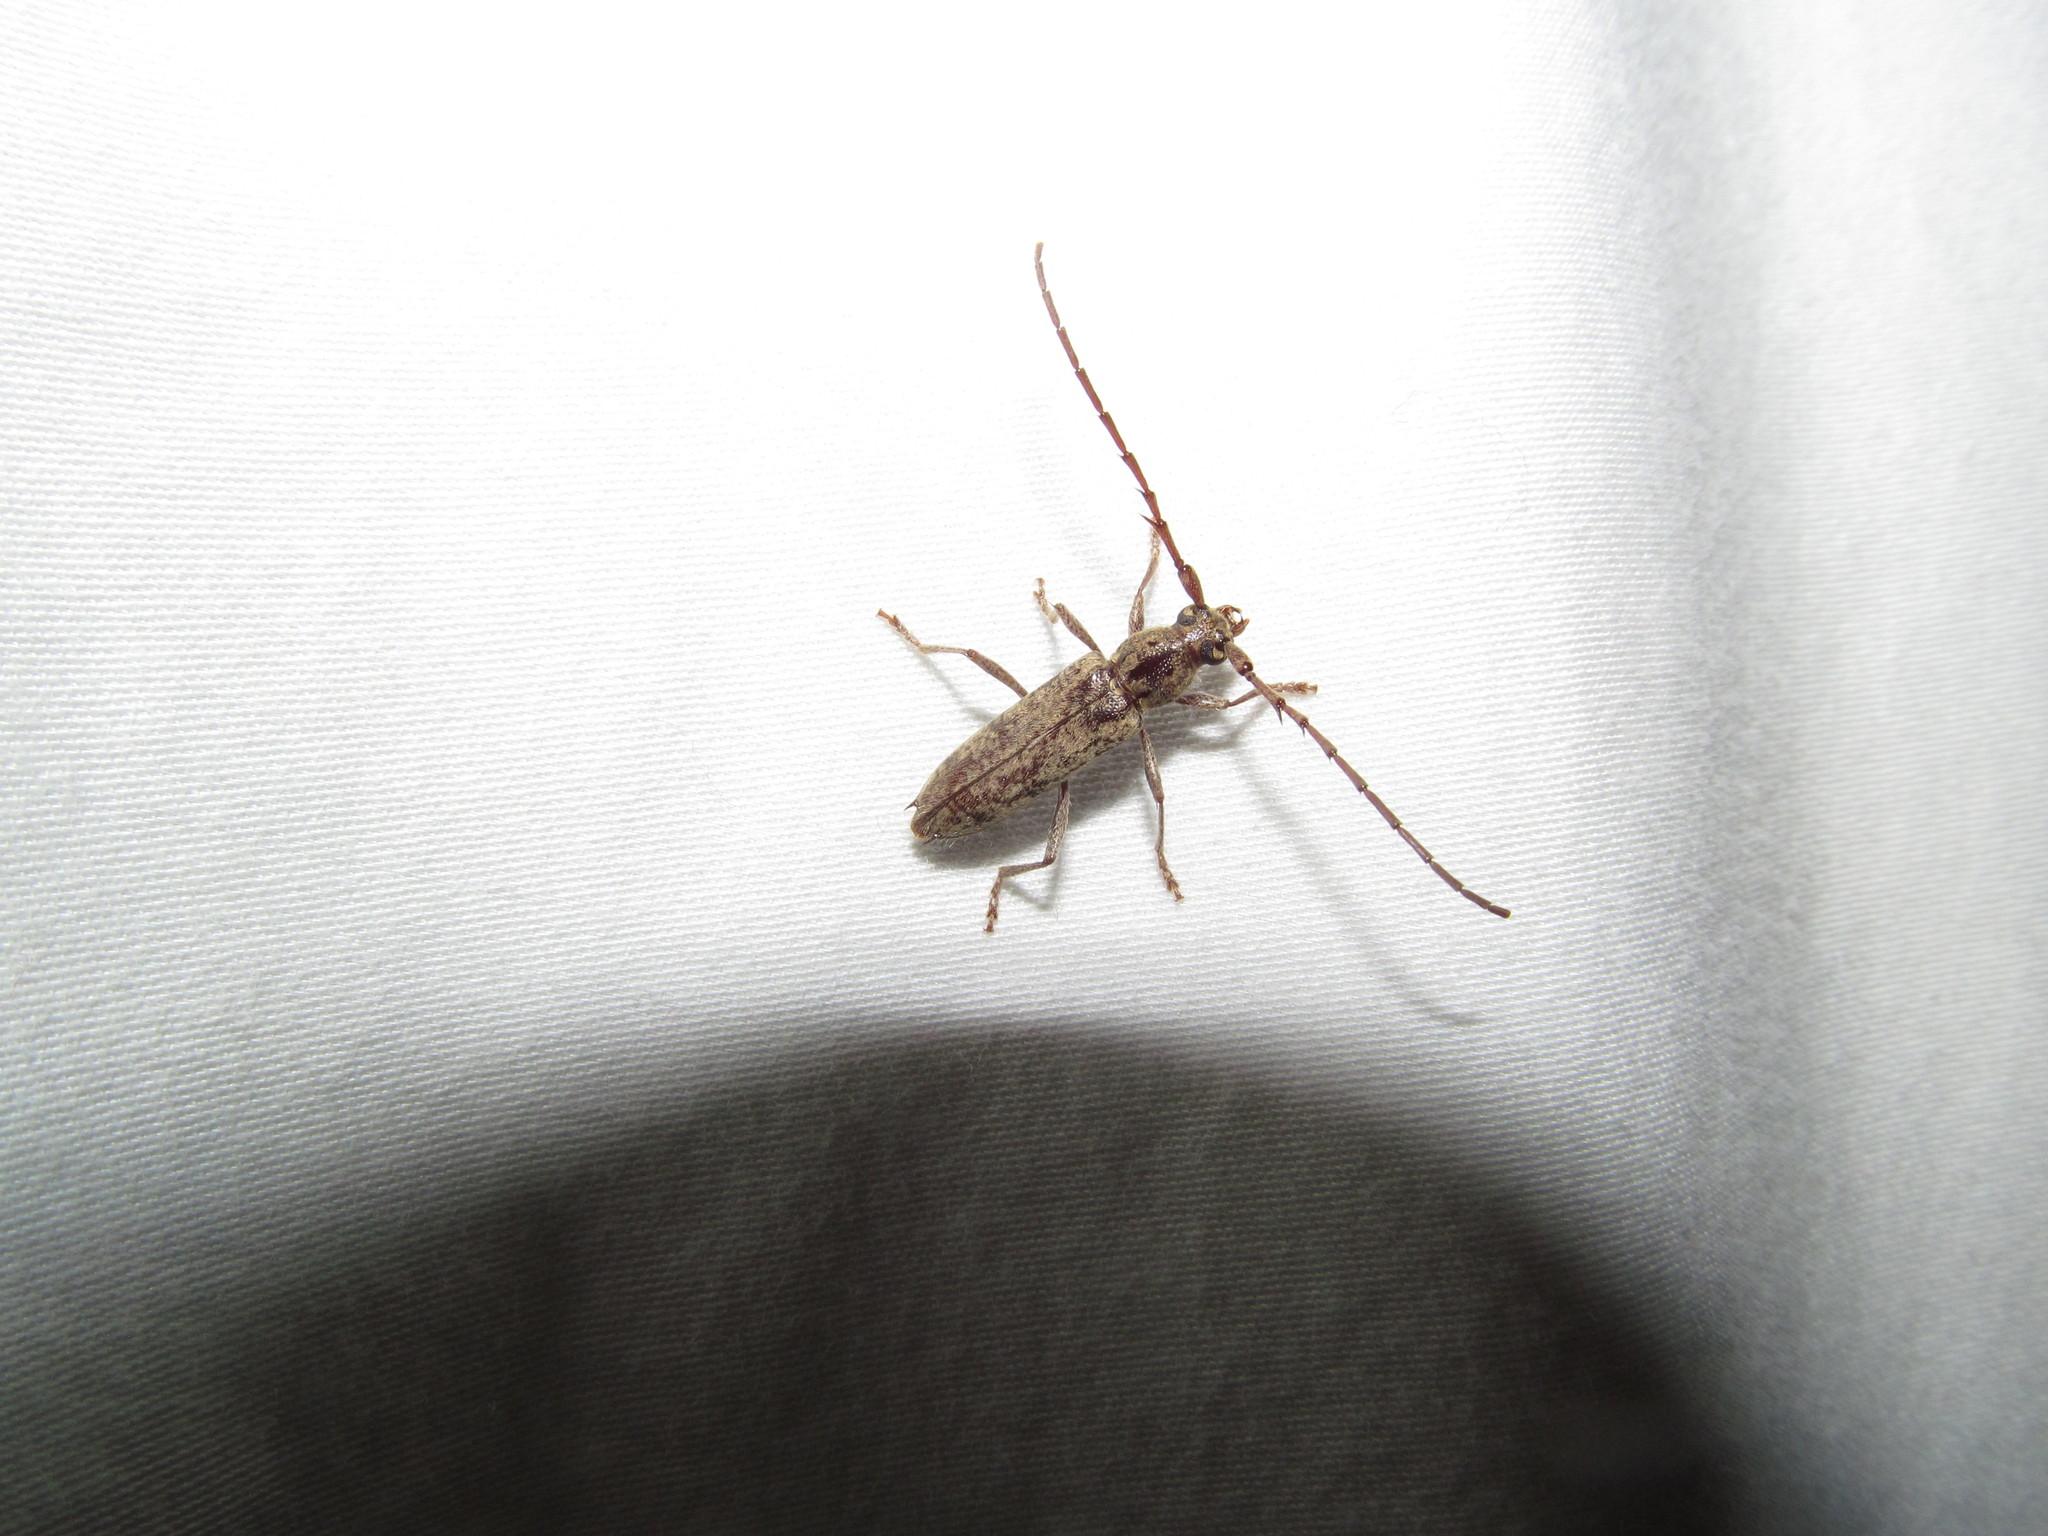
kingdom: Animalia
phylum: Arthropoda
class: Insecta
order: Coleoptera
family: Cerambycidae
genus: Elaphidion
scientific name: Elaphidion mucronatum
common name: Spined oak borer
